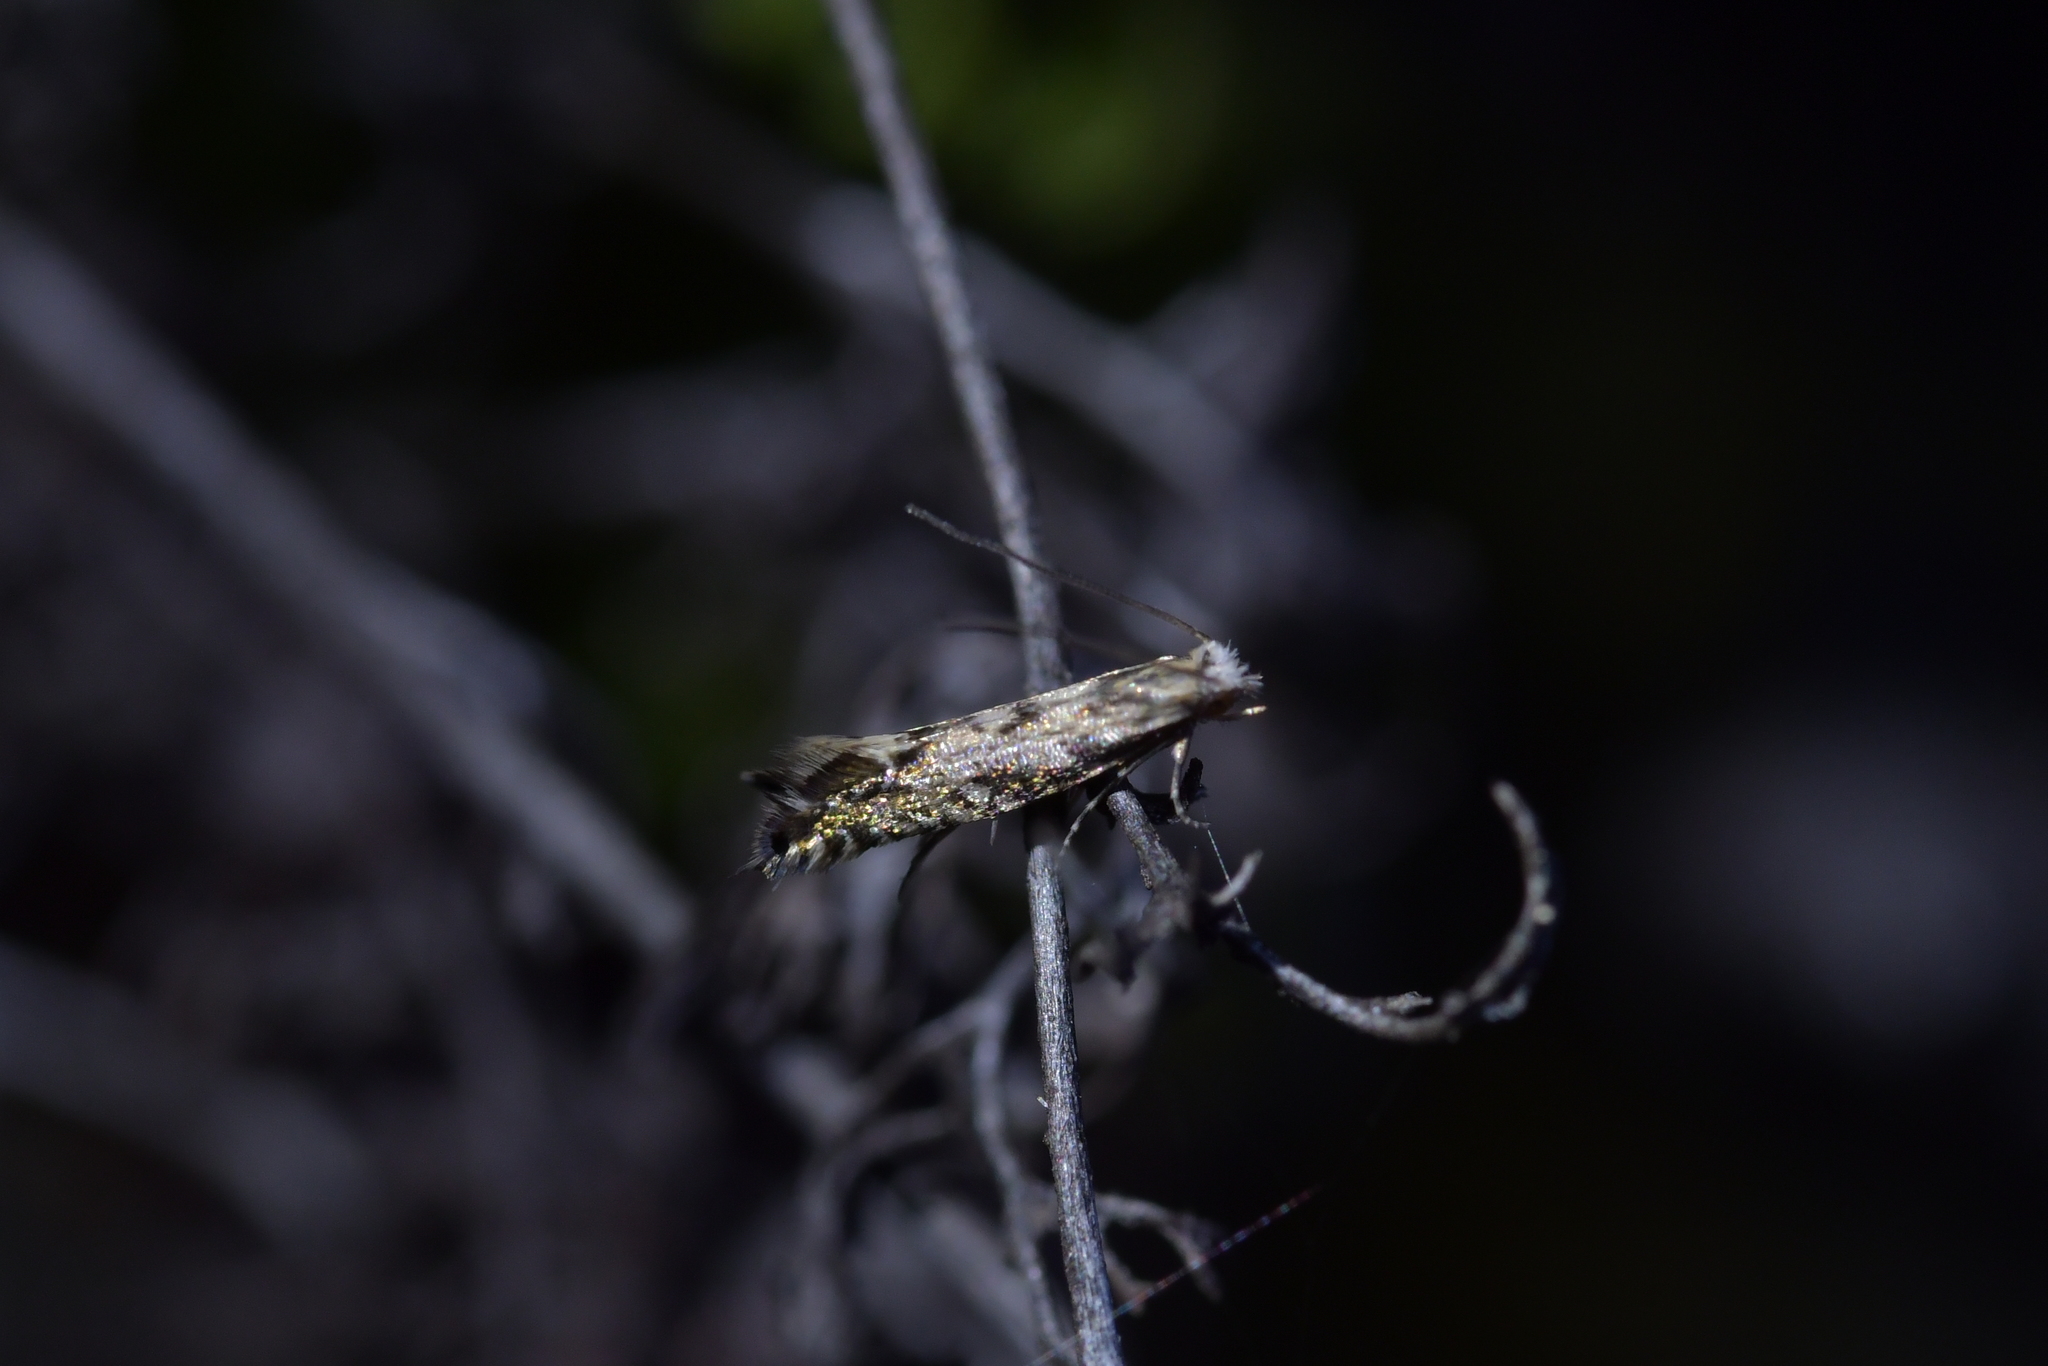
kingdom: Animalia
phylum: Arthropoda
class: Insecta
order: Lepidoptera
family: Tineidae
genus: Tinea
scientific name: Tinea accusatrix
